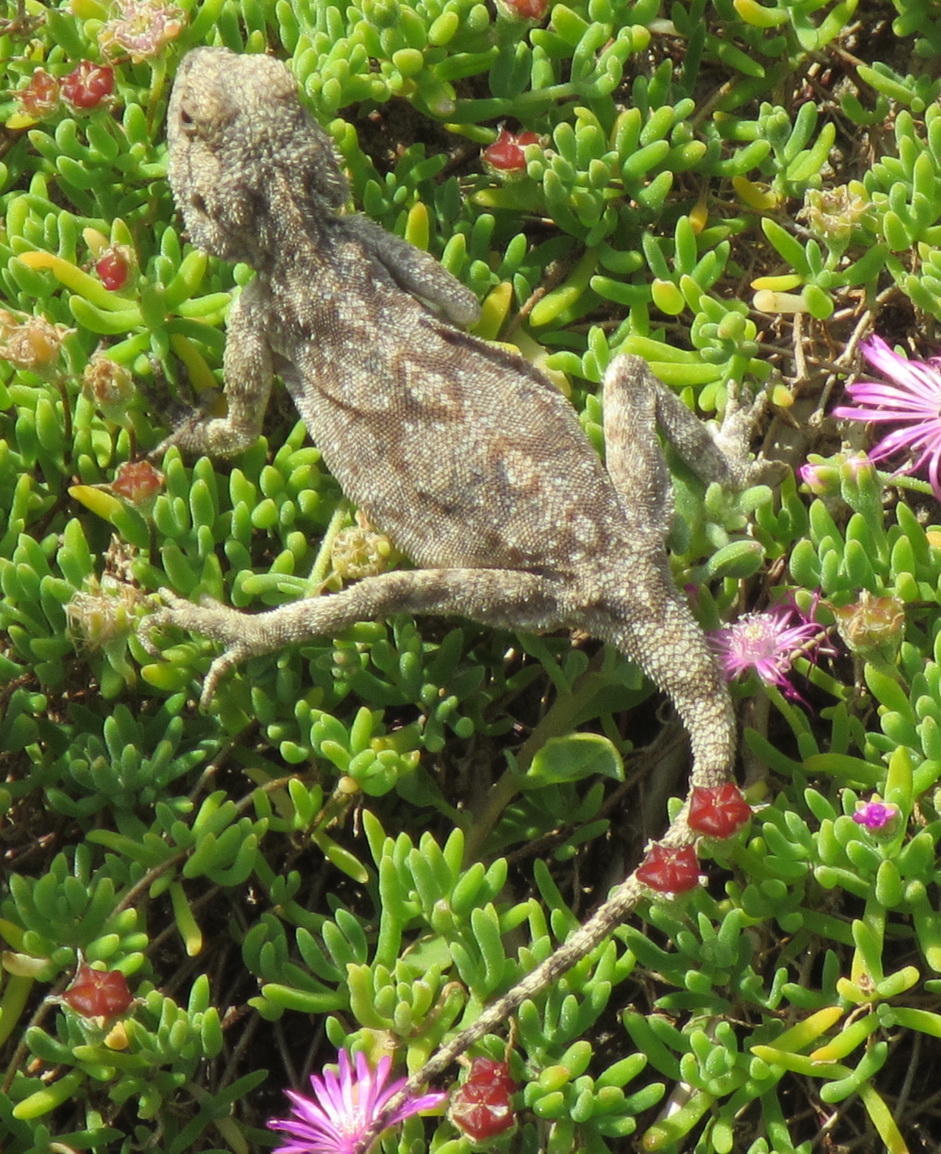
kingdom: Animalia
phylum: Chordata
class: Squamata
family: Agamidae
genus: Agama
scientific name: Agama atra
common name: Southern african rock agama
